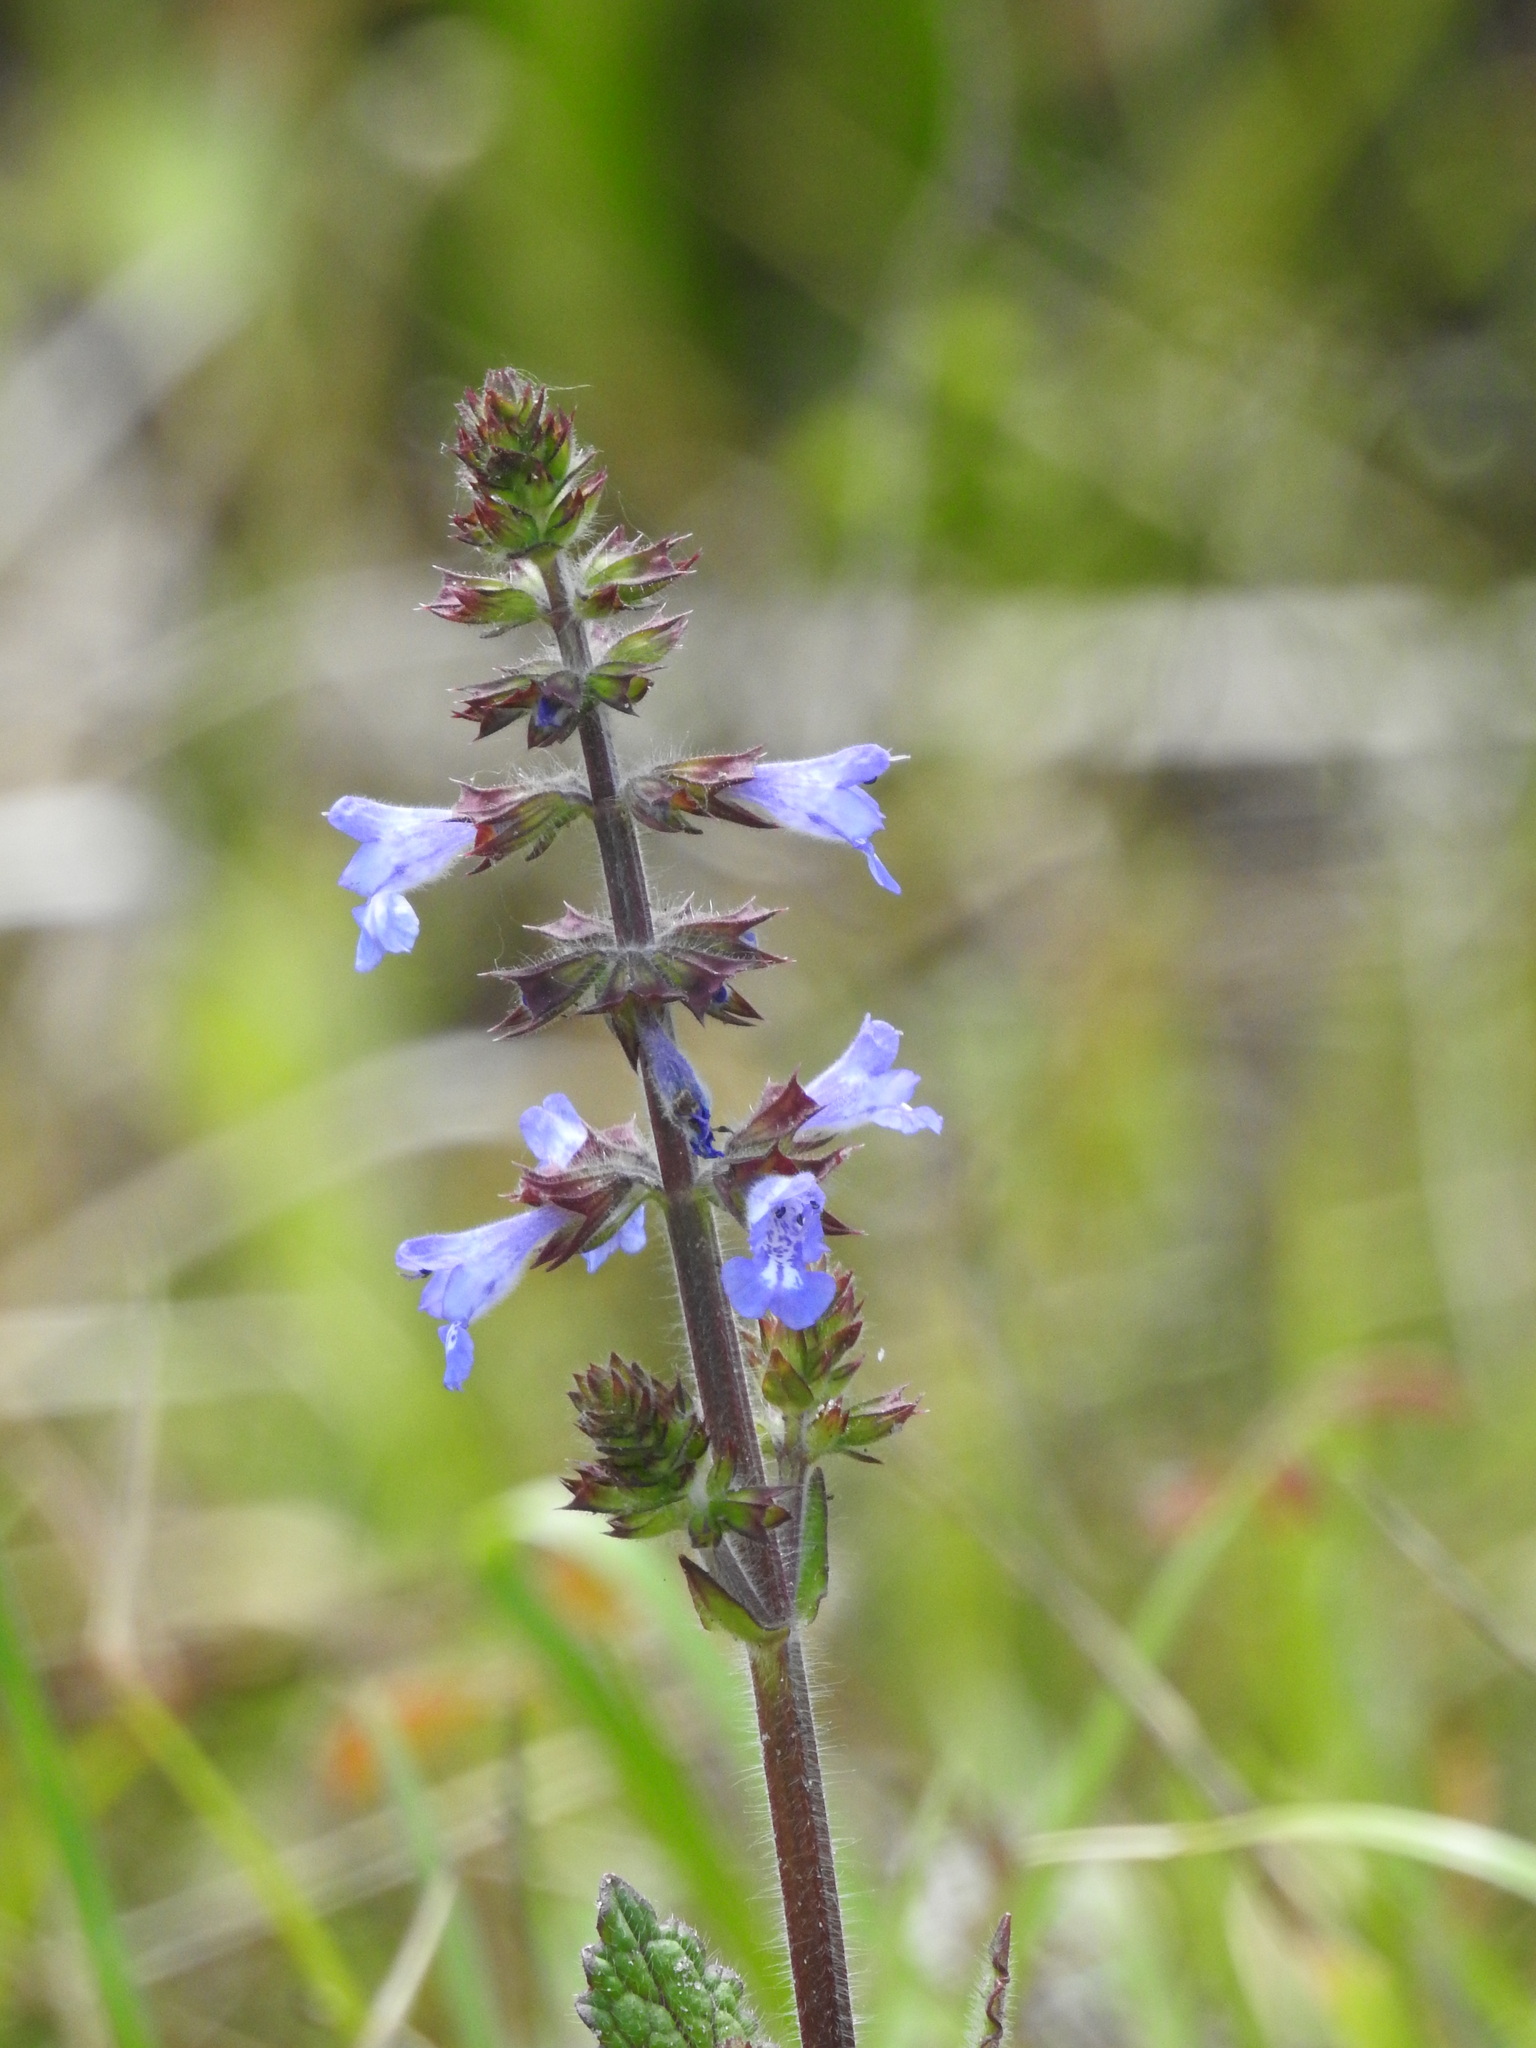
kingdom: Plantae
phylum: Tracheophyta
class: Magnoliopsida
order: Lamiales
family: Lamiaceae
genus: Salvia
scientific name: Salvia lyrata
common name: Cancerweed
